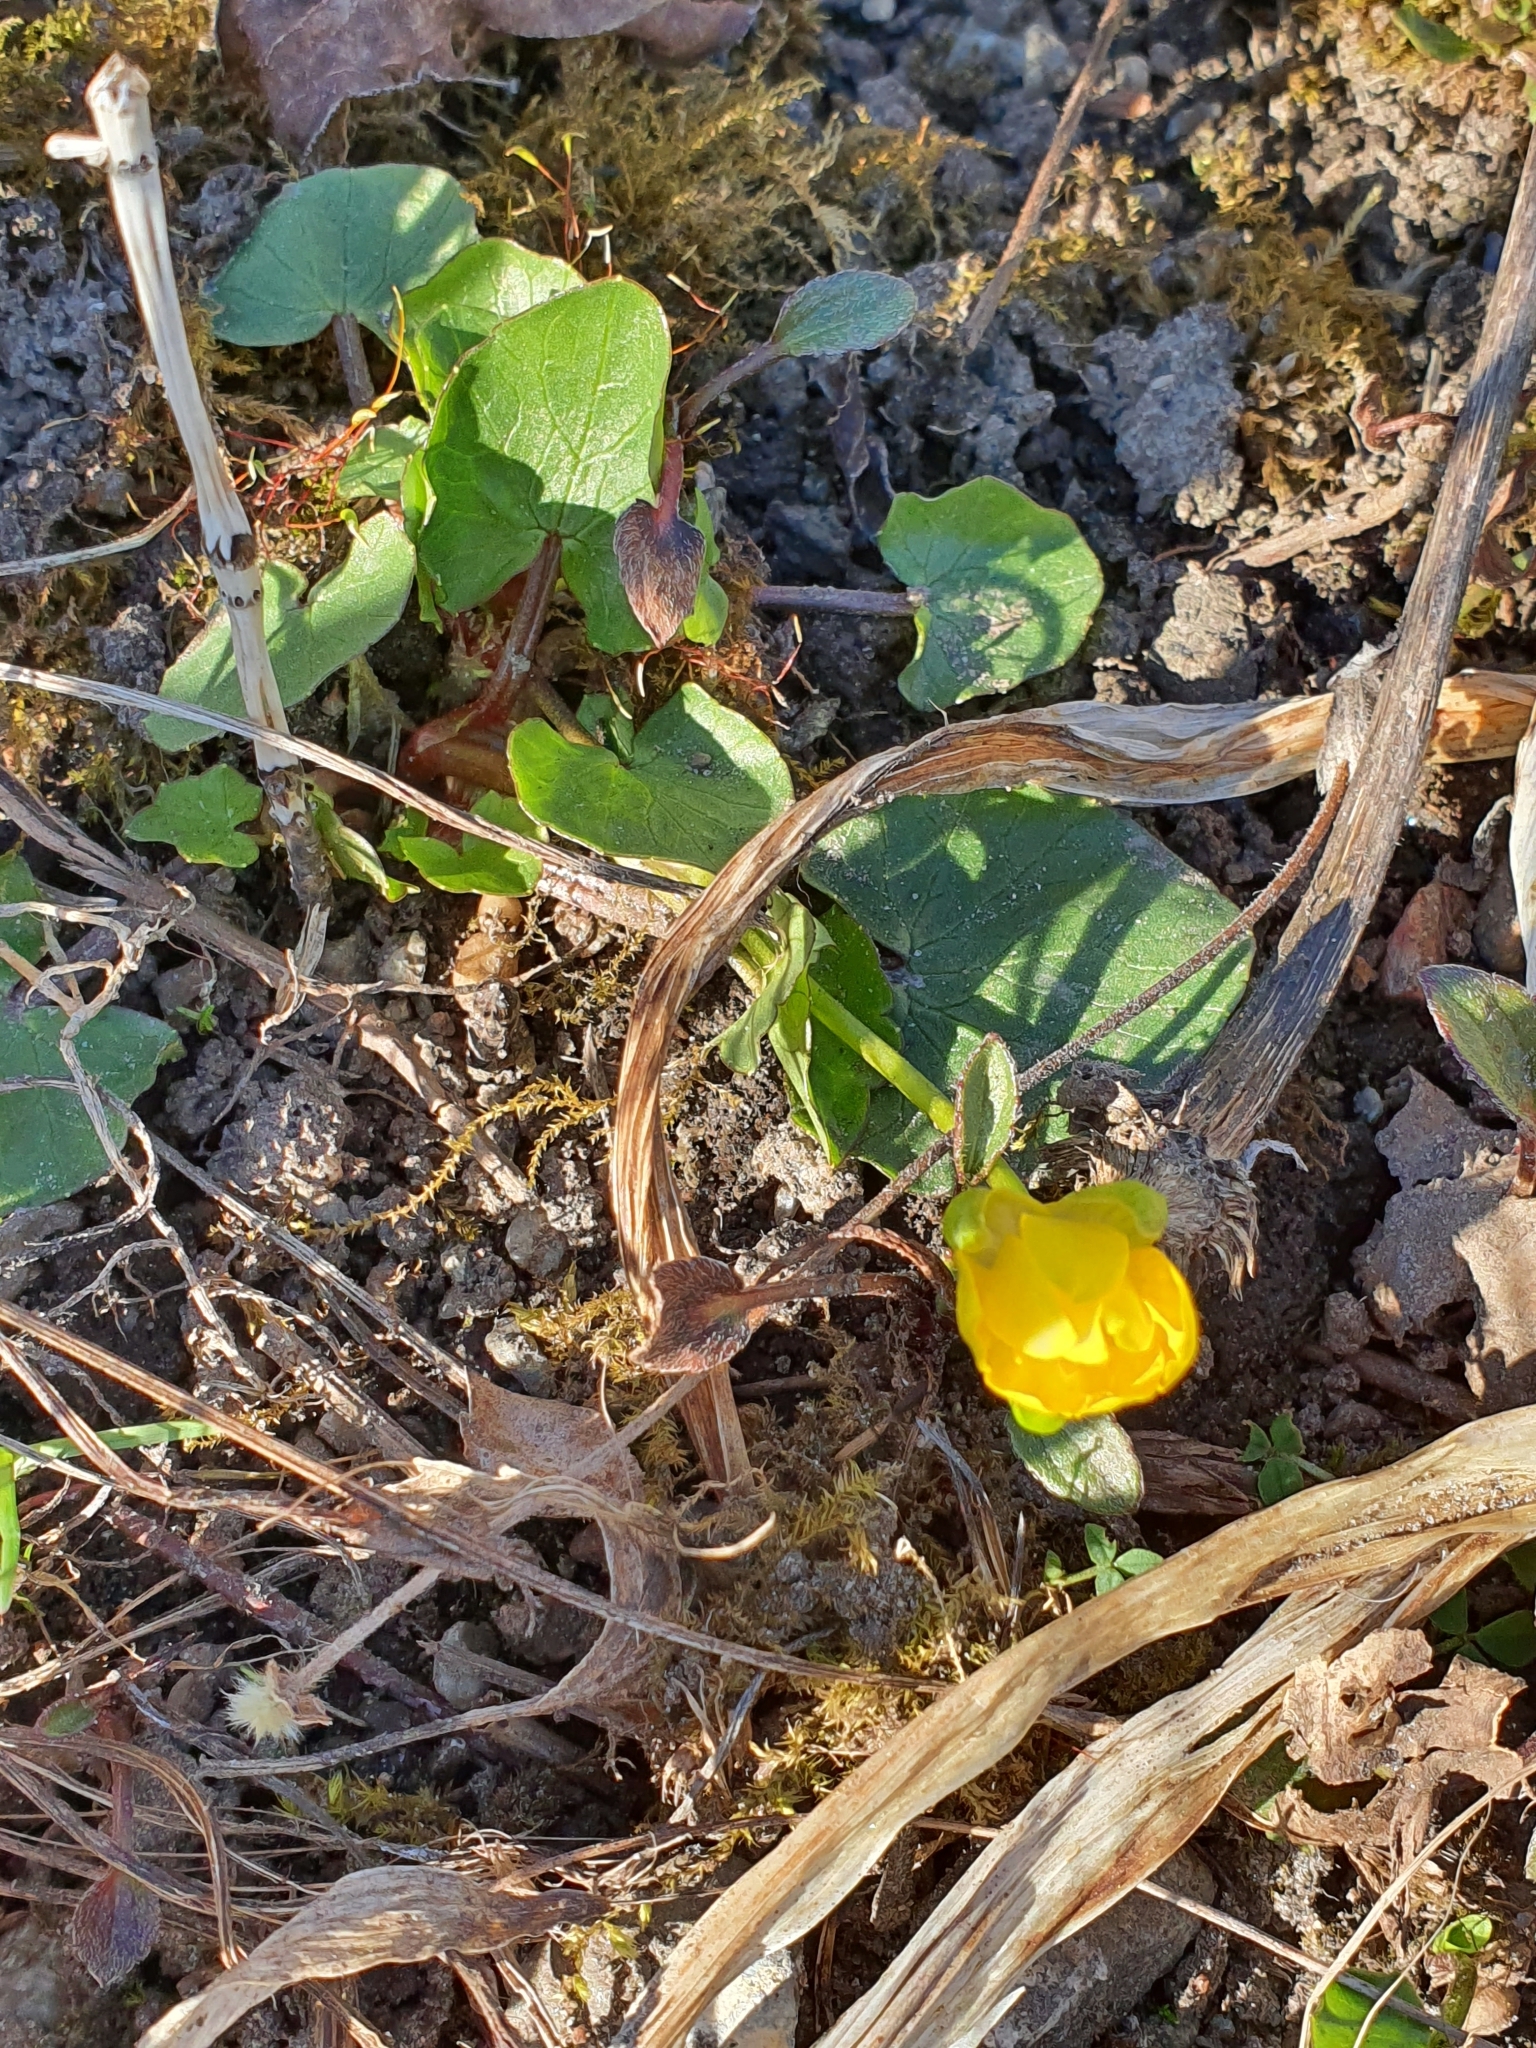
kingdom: Plantae
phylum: Tracheophyta
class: Magnoliopsida
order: Ranunculales
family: Ranunculaceae
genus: Ficaria
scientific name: Ficaria verna
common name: Lesser celandine
